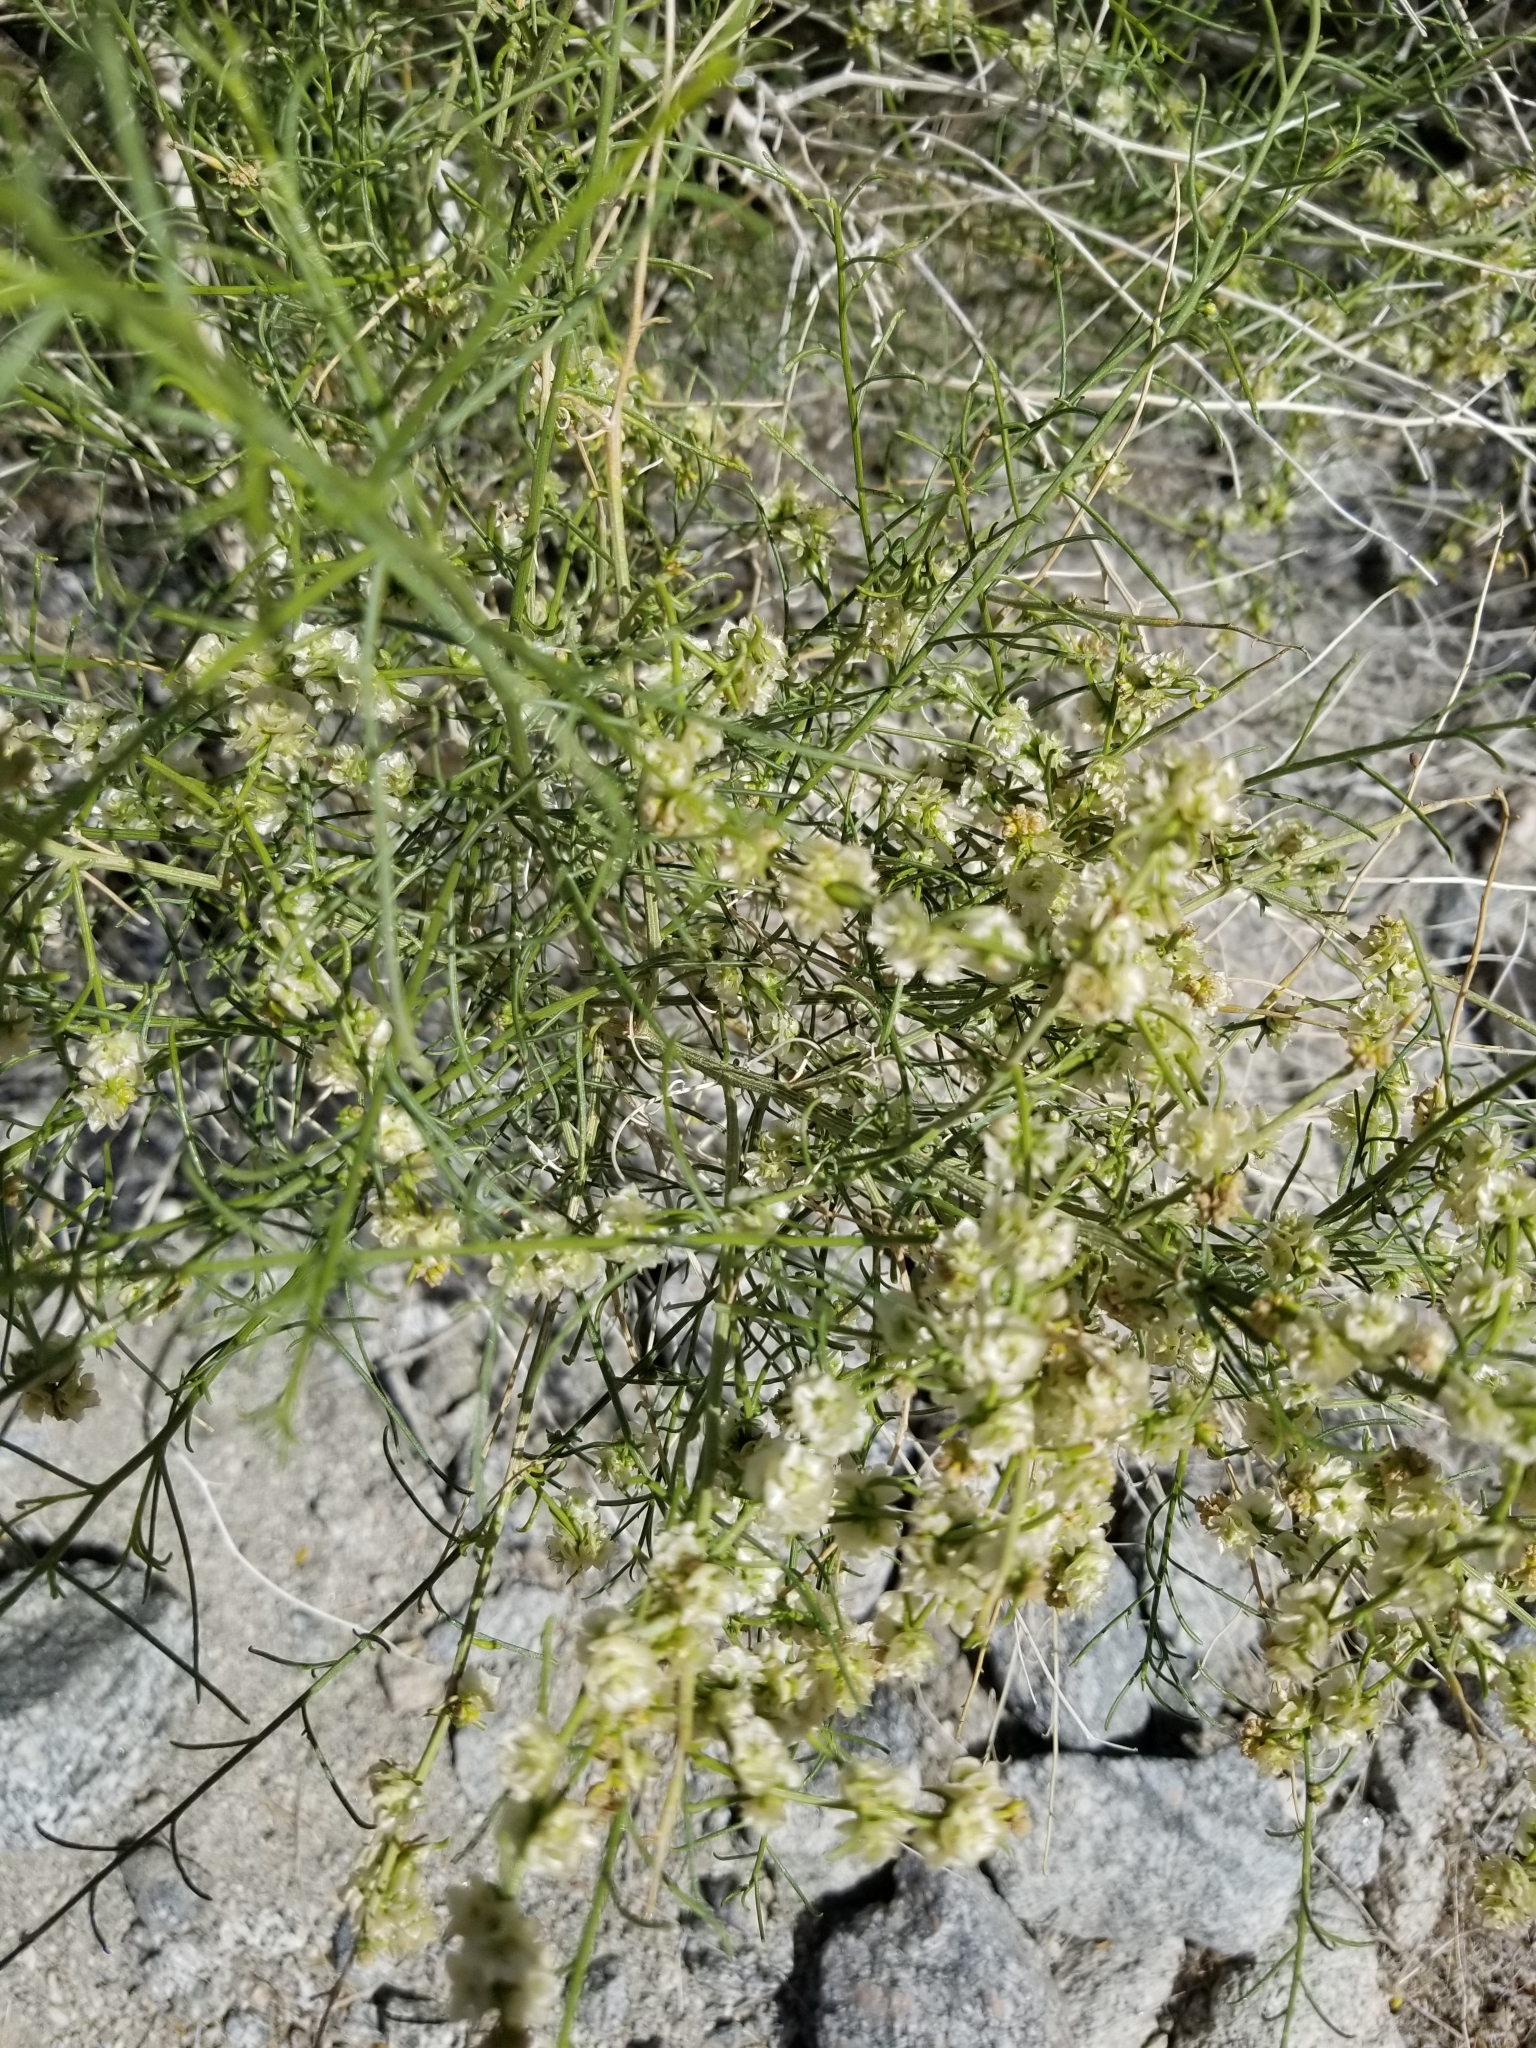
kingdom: Plantae
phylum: Tracheophyta
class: Magnoliopsida
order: Asterales
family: Asteraceae
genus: Ambrosia
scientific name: Ambrosia salsola
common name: Burrobrush
